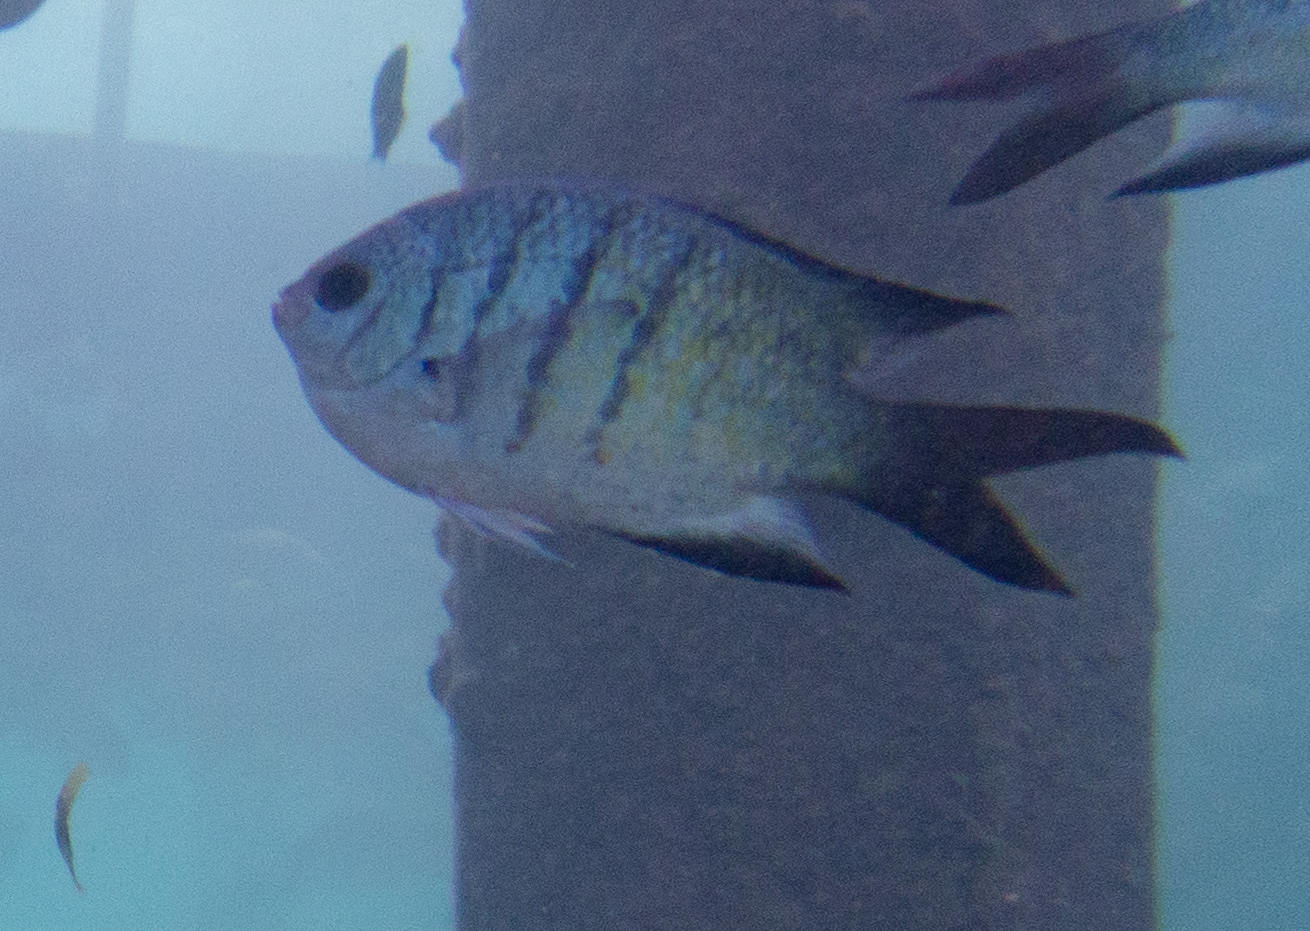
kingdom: Animalia
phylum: Chordata
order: Perciformes
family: Pomacentridae
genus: Abudefduf
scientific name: Abudefduf whitleyi
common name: Whitley's seargent
